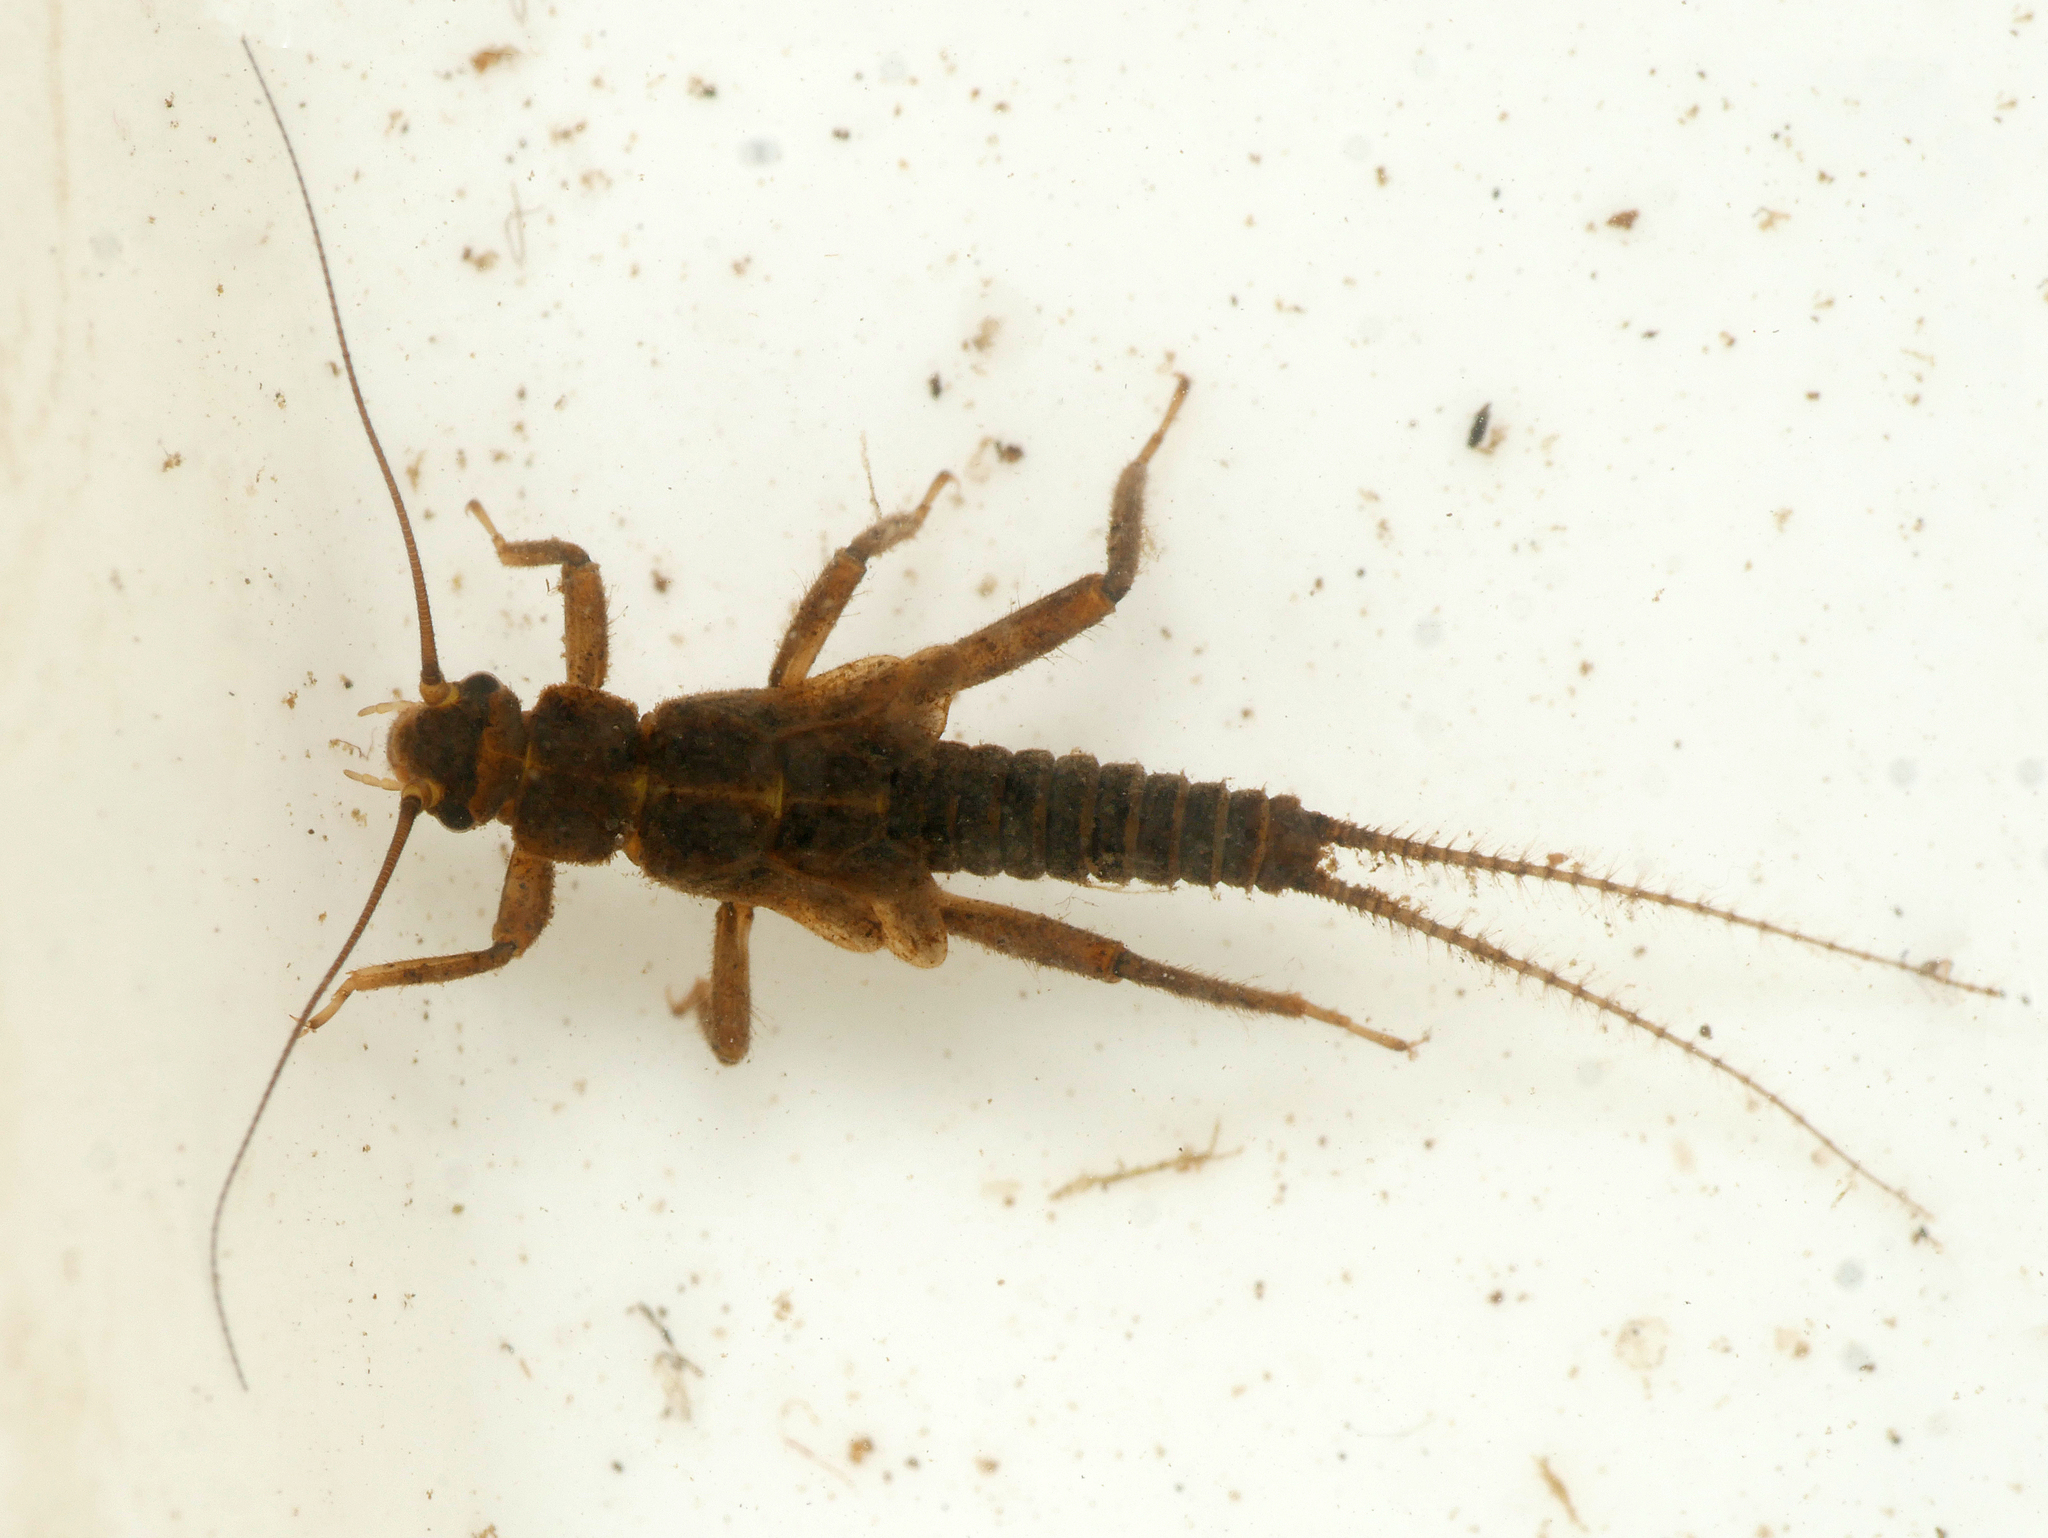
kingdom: Animalia
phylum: Arthropoda
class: Insecta
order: Plecoptera
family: Nemouridae
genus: Nemoura
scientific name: Nemoura avicularis
